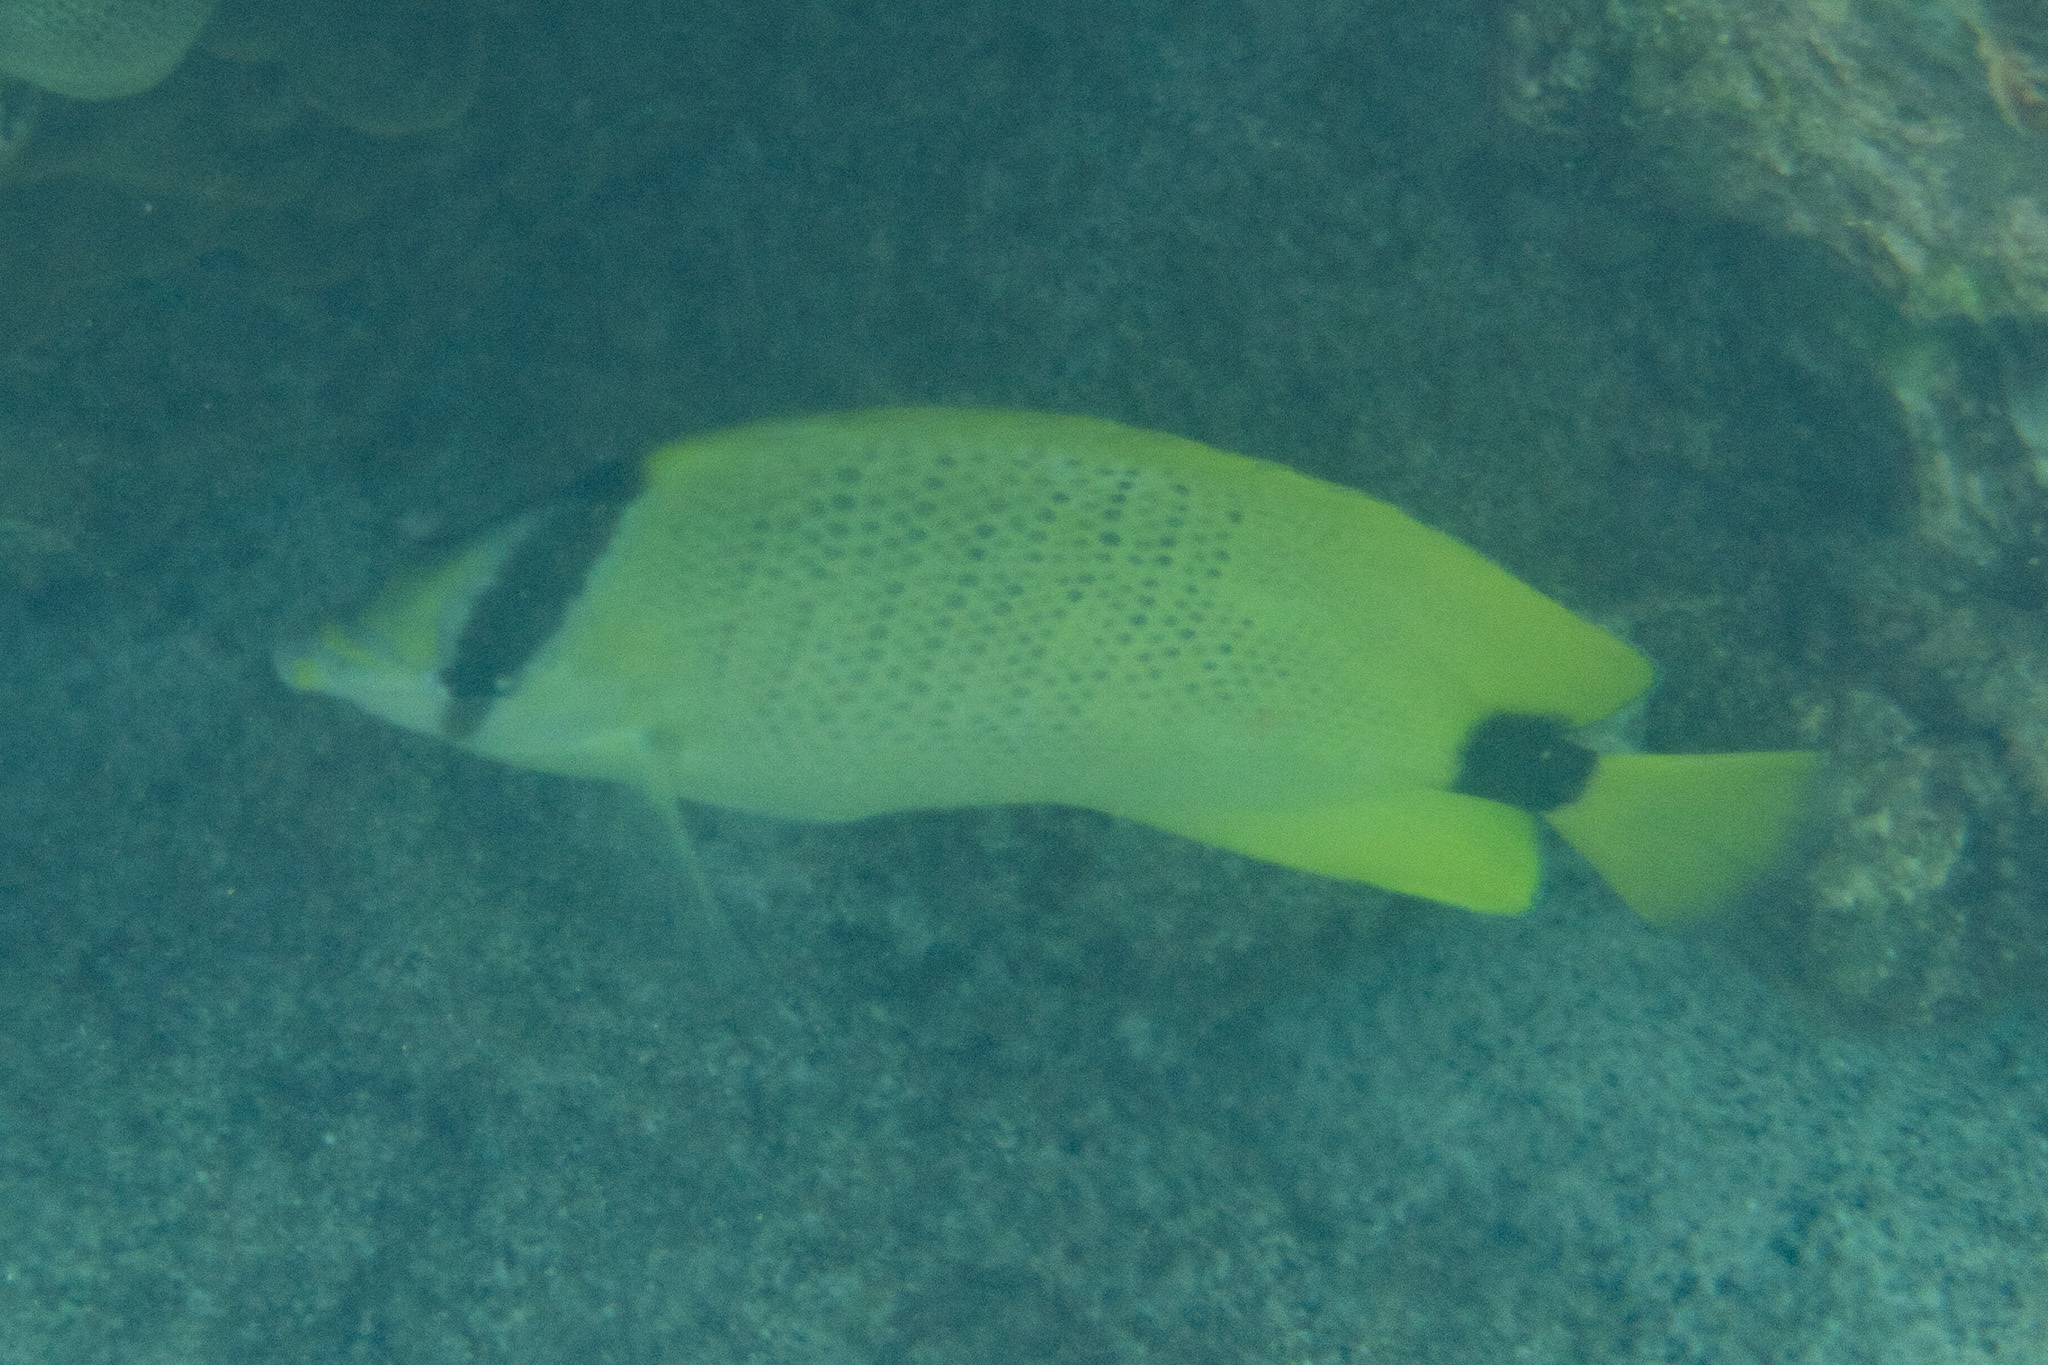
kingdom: Animalia
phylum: Chordata
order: Perciformes
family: Chaetodontidae
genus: Chaetodon
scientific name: Chaetodon miliaris
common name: Lemon butterflyfish
